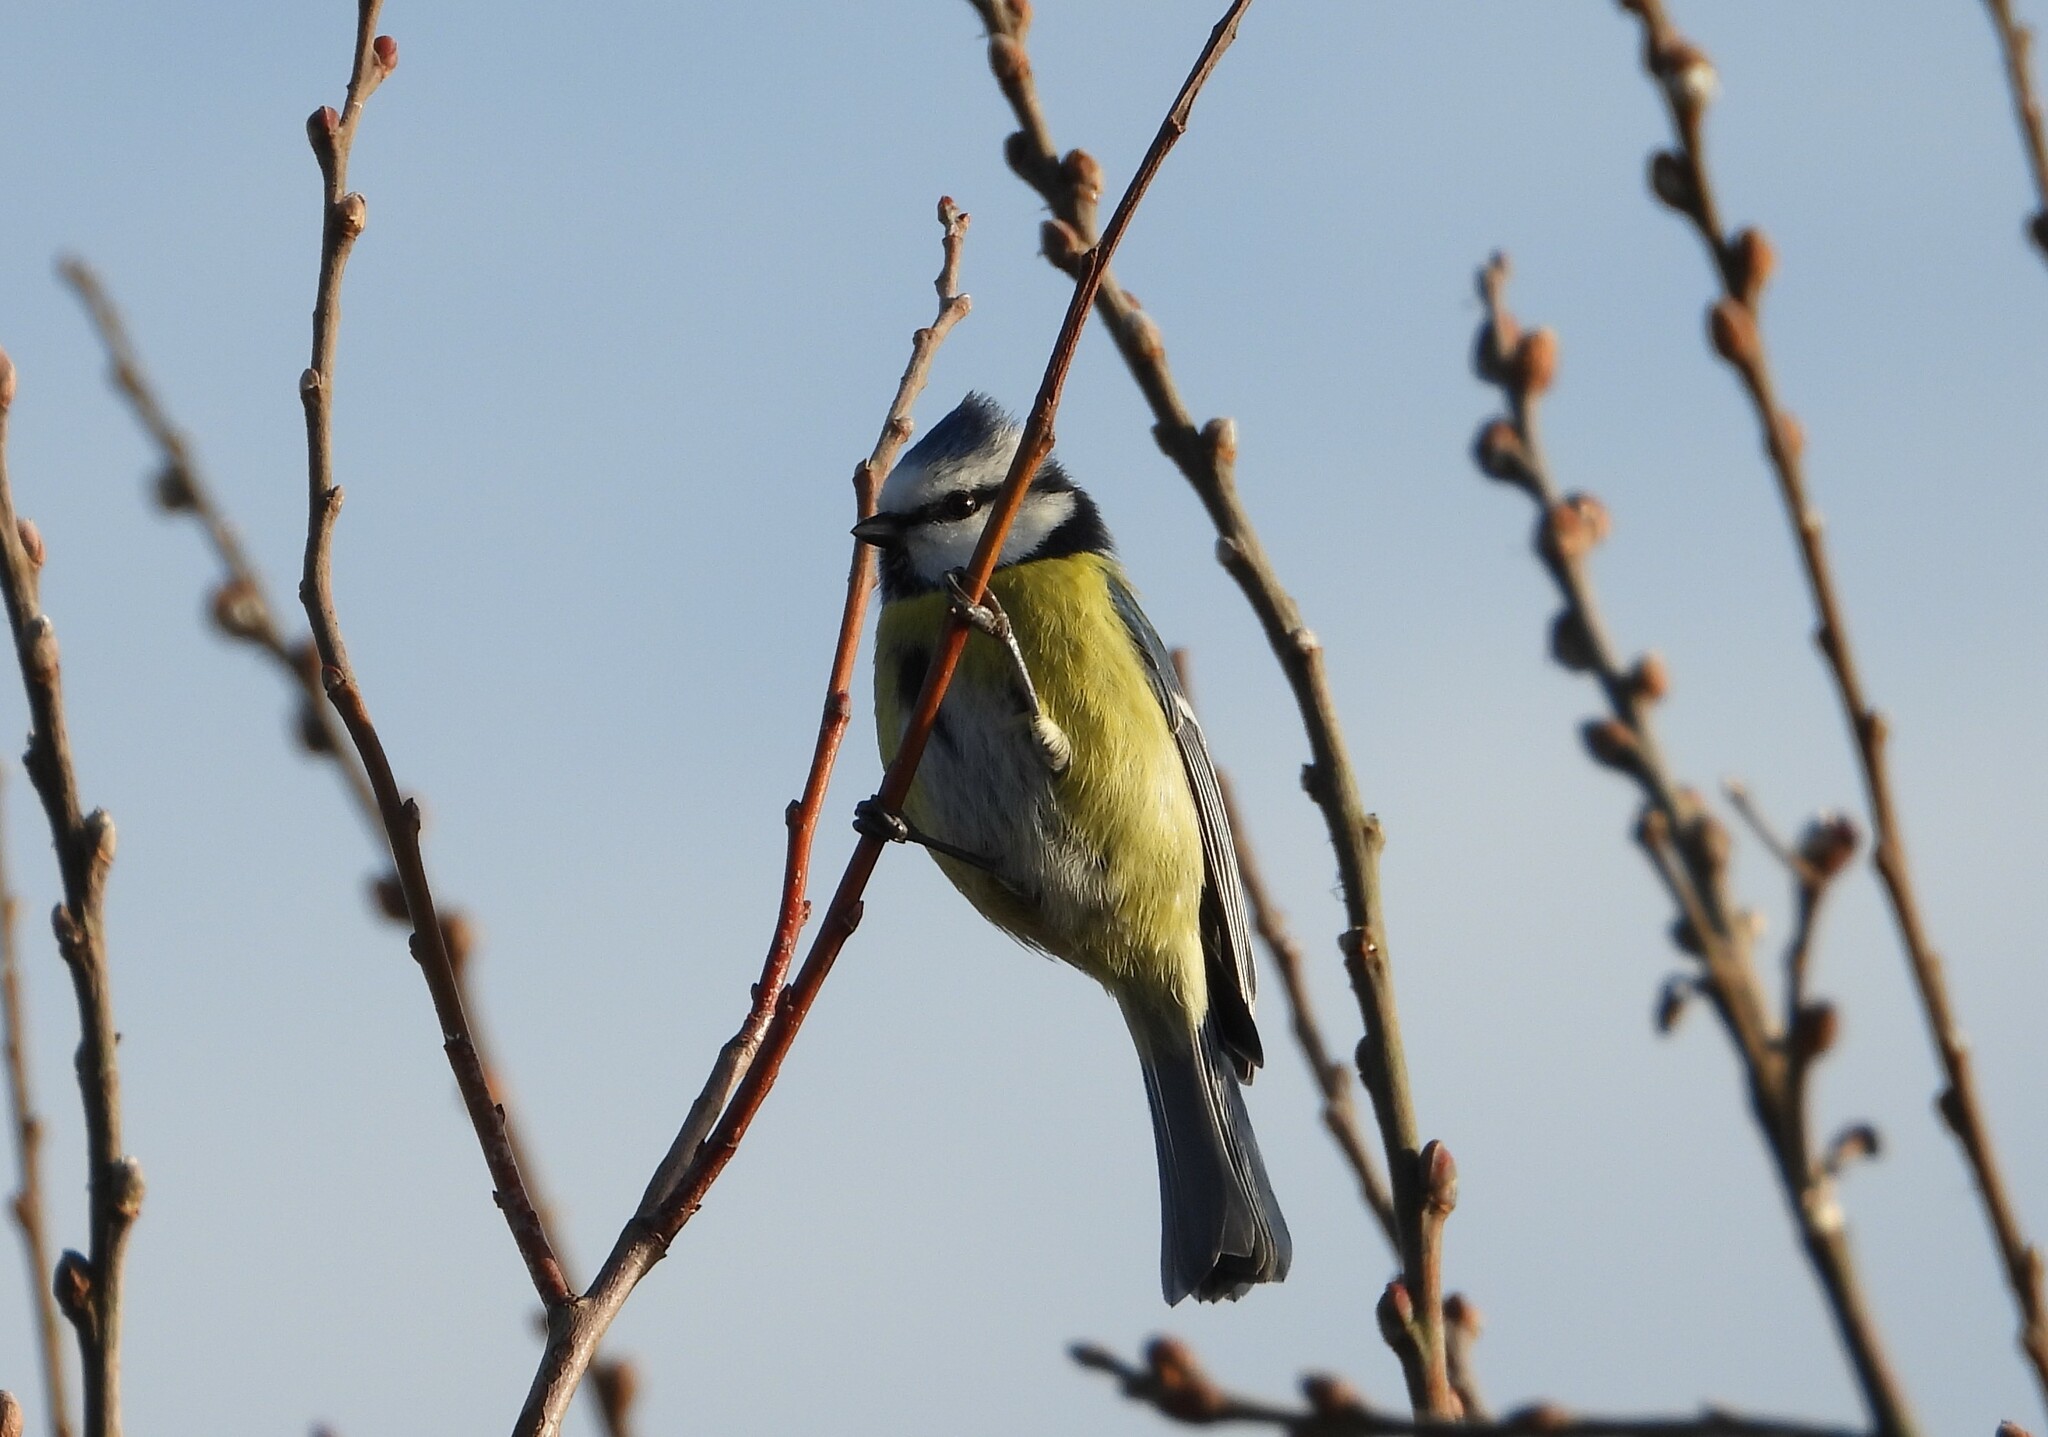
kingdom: Animalia
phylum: Chordata
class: Aves
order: Passeriformes
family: Paridae
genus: Cyanistes
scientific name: Cyanistes caeruleus
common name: Eurasian blue tit
